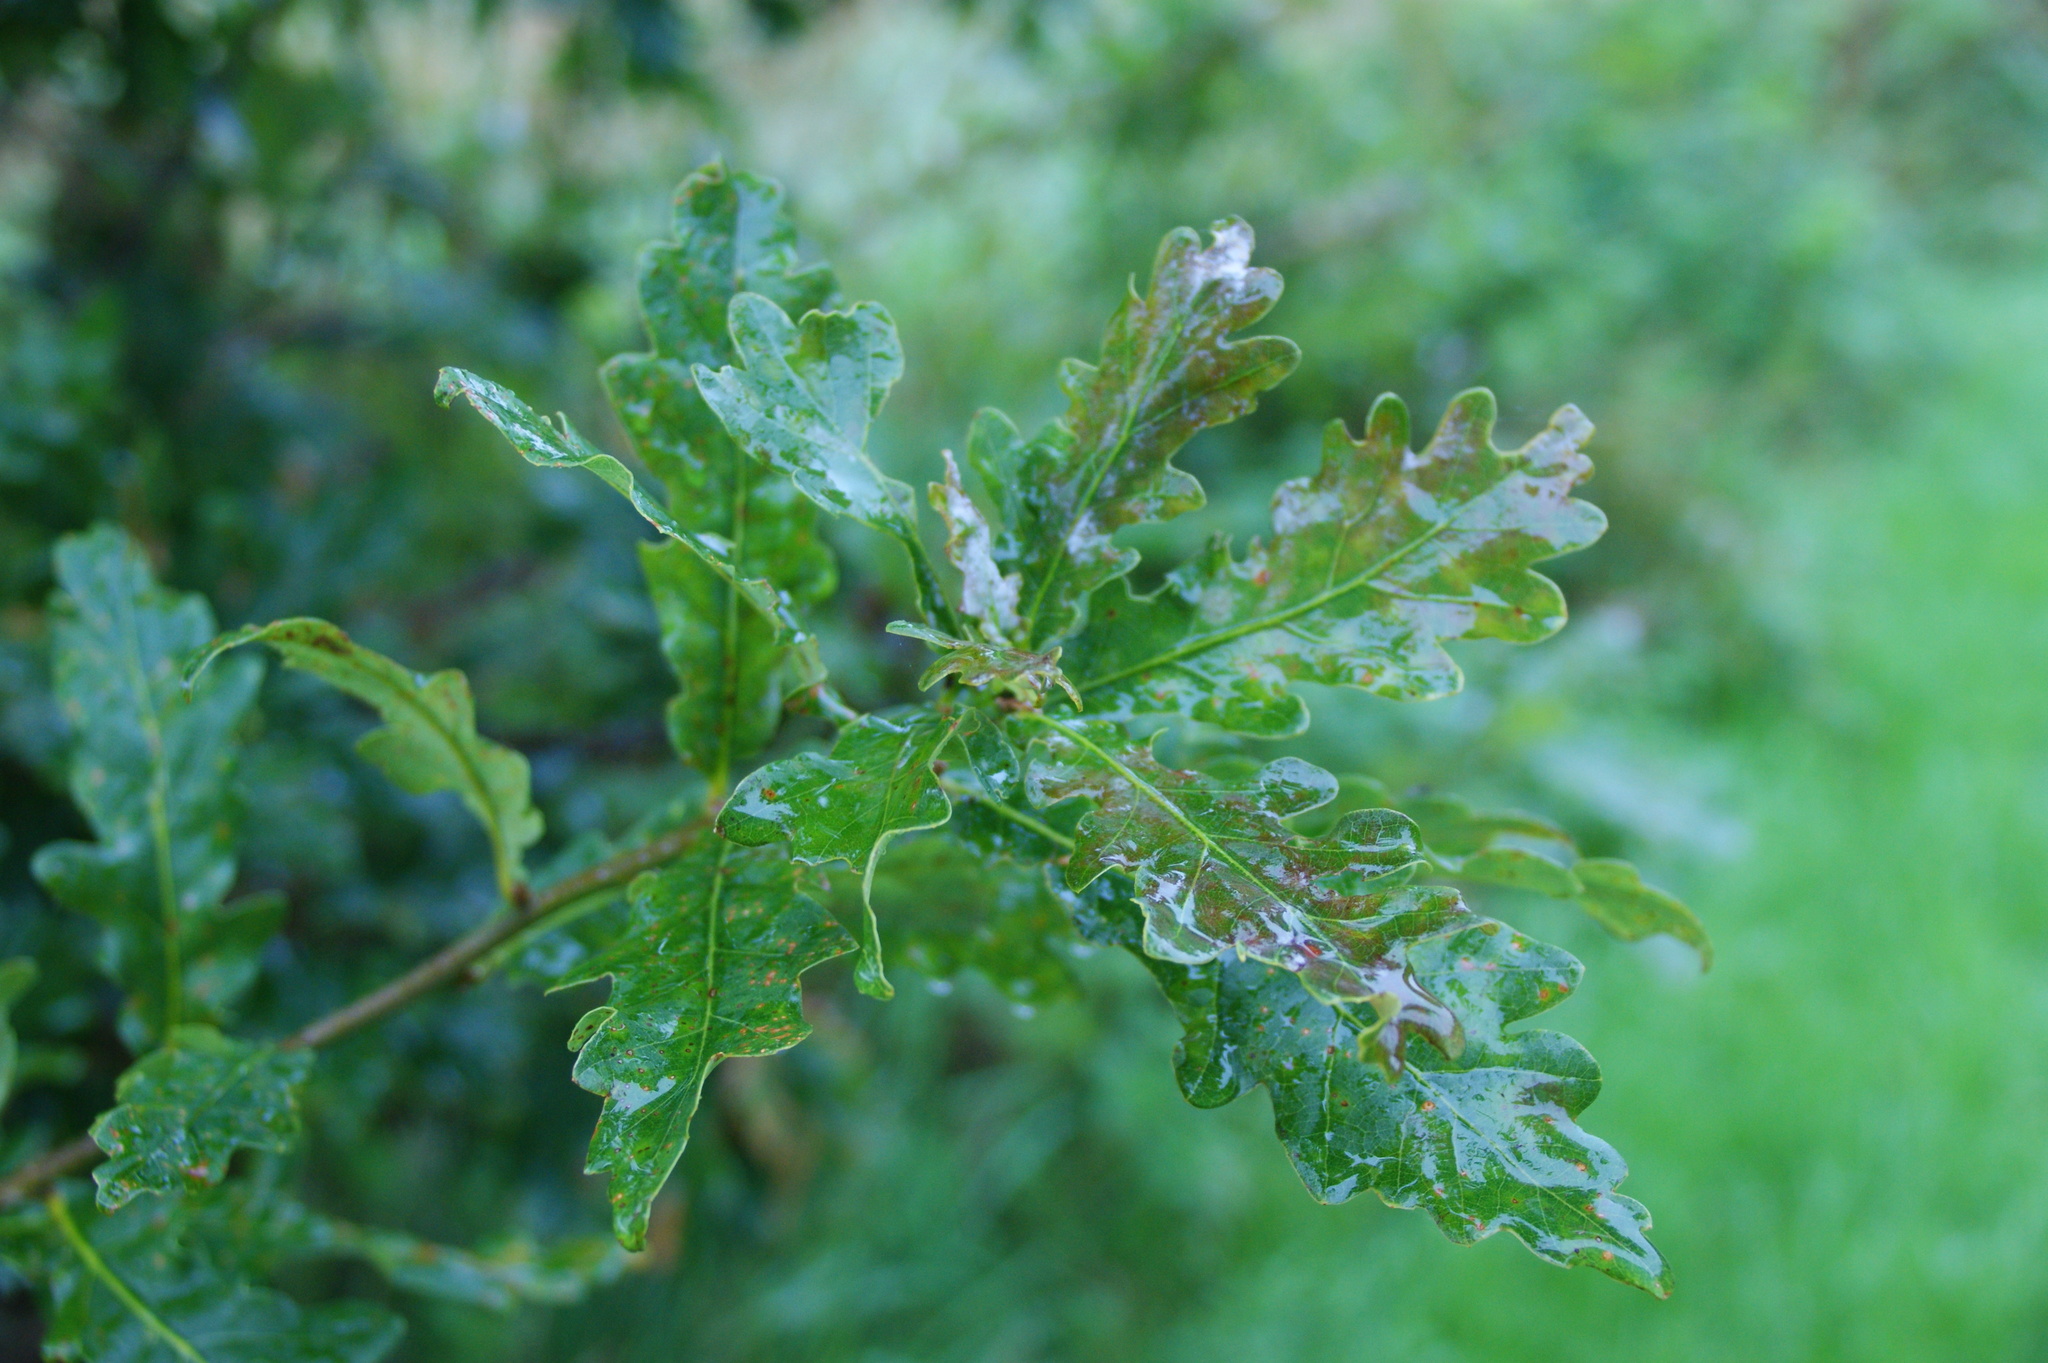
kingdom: Plantae
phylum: Tracheophyta
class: Magnoliopsida
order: Fagales
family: Fagaceae
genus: Quercus
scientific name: Quercus robur
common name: Pedunculate oak
